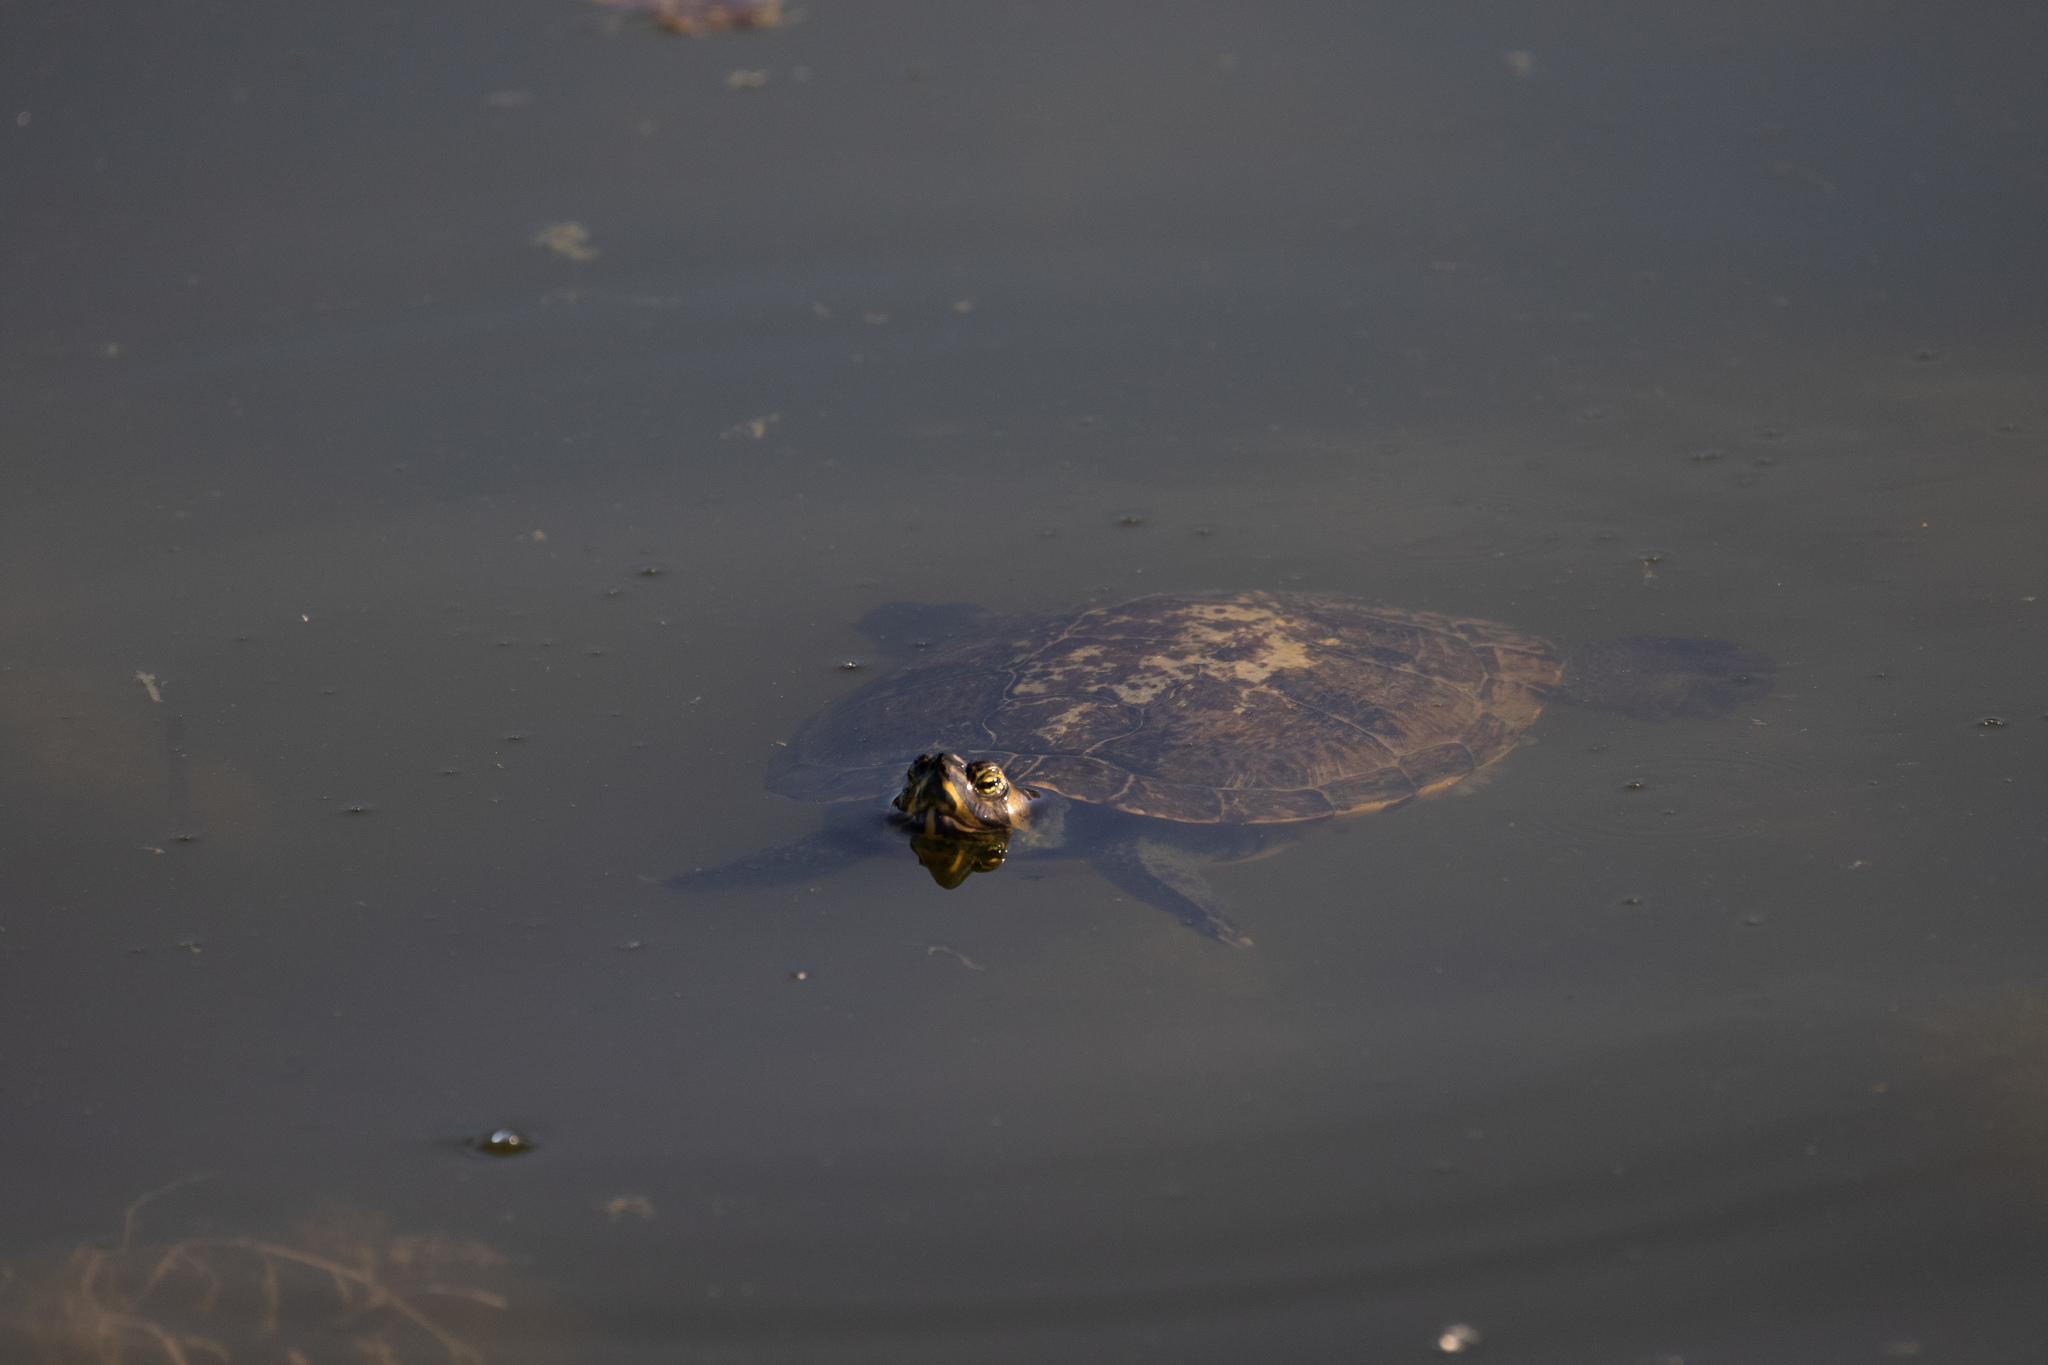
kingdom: Animalia
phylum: Chordata
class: Testudines
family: Emydidae
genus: Trachemys
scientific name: Trachemys scripta
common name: Slider
